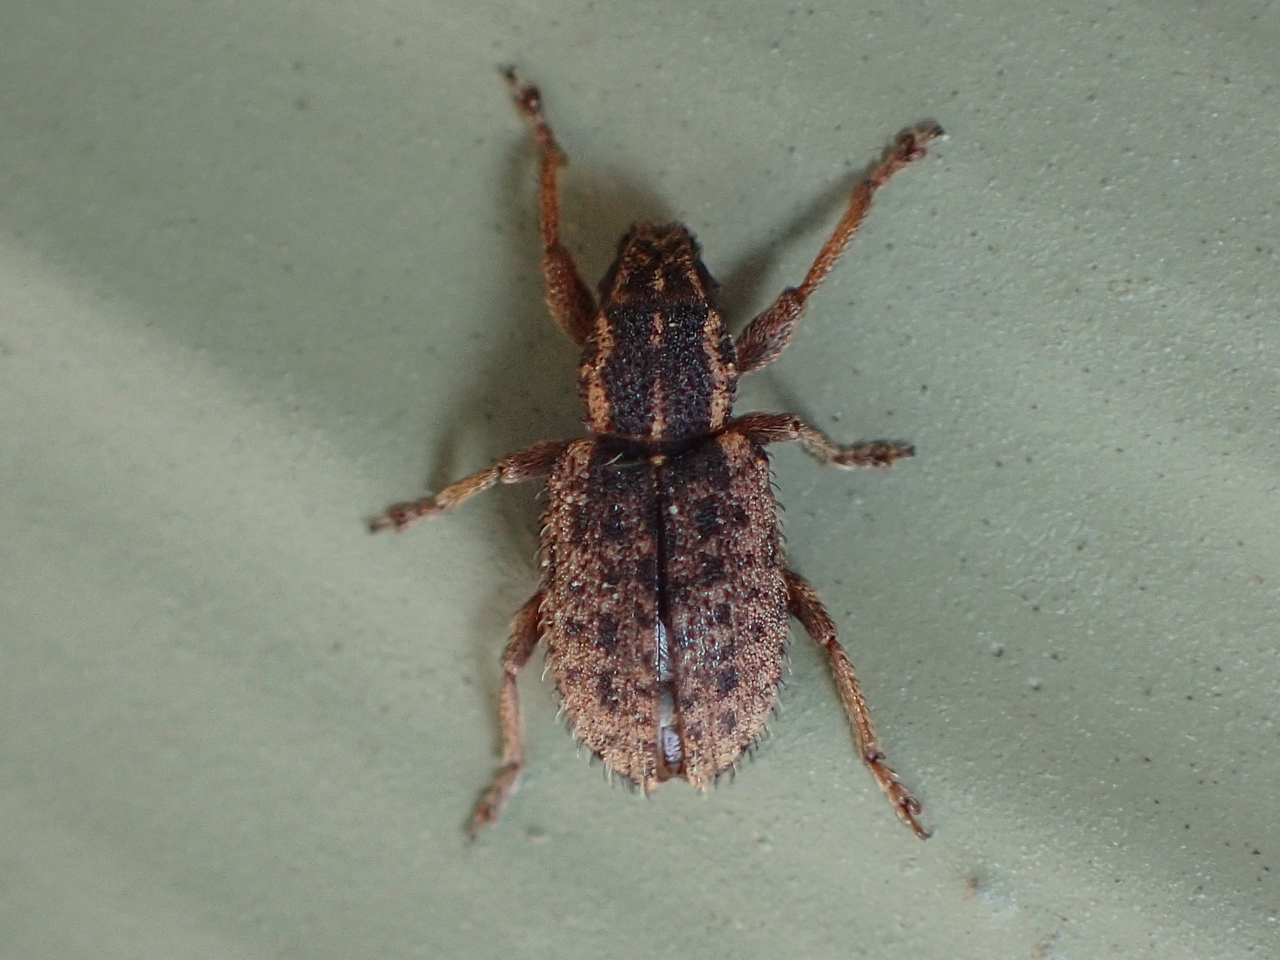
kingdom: Animalia
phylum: Arthropoda
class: Insecta
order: Coleoptera
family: Curculionidae
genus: Sitona
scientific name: Sitona hispidulus
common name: Clover weevil
